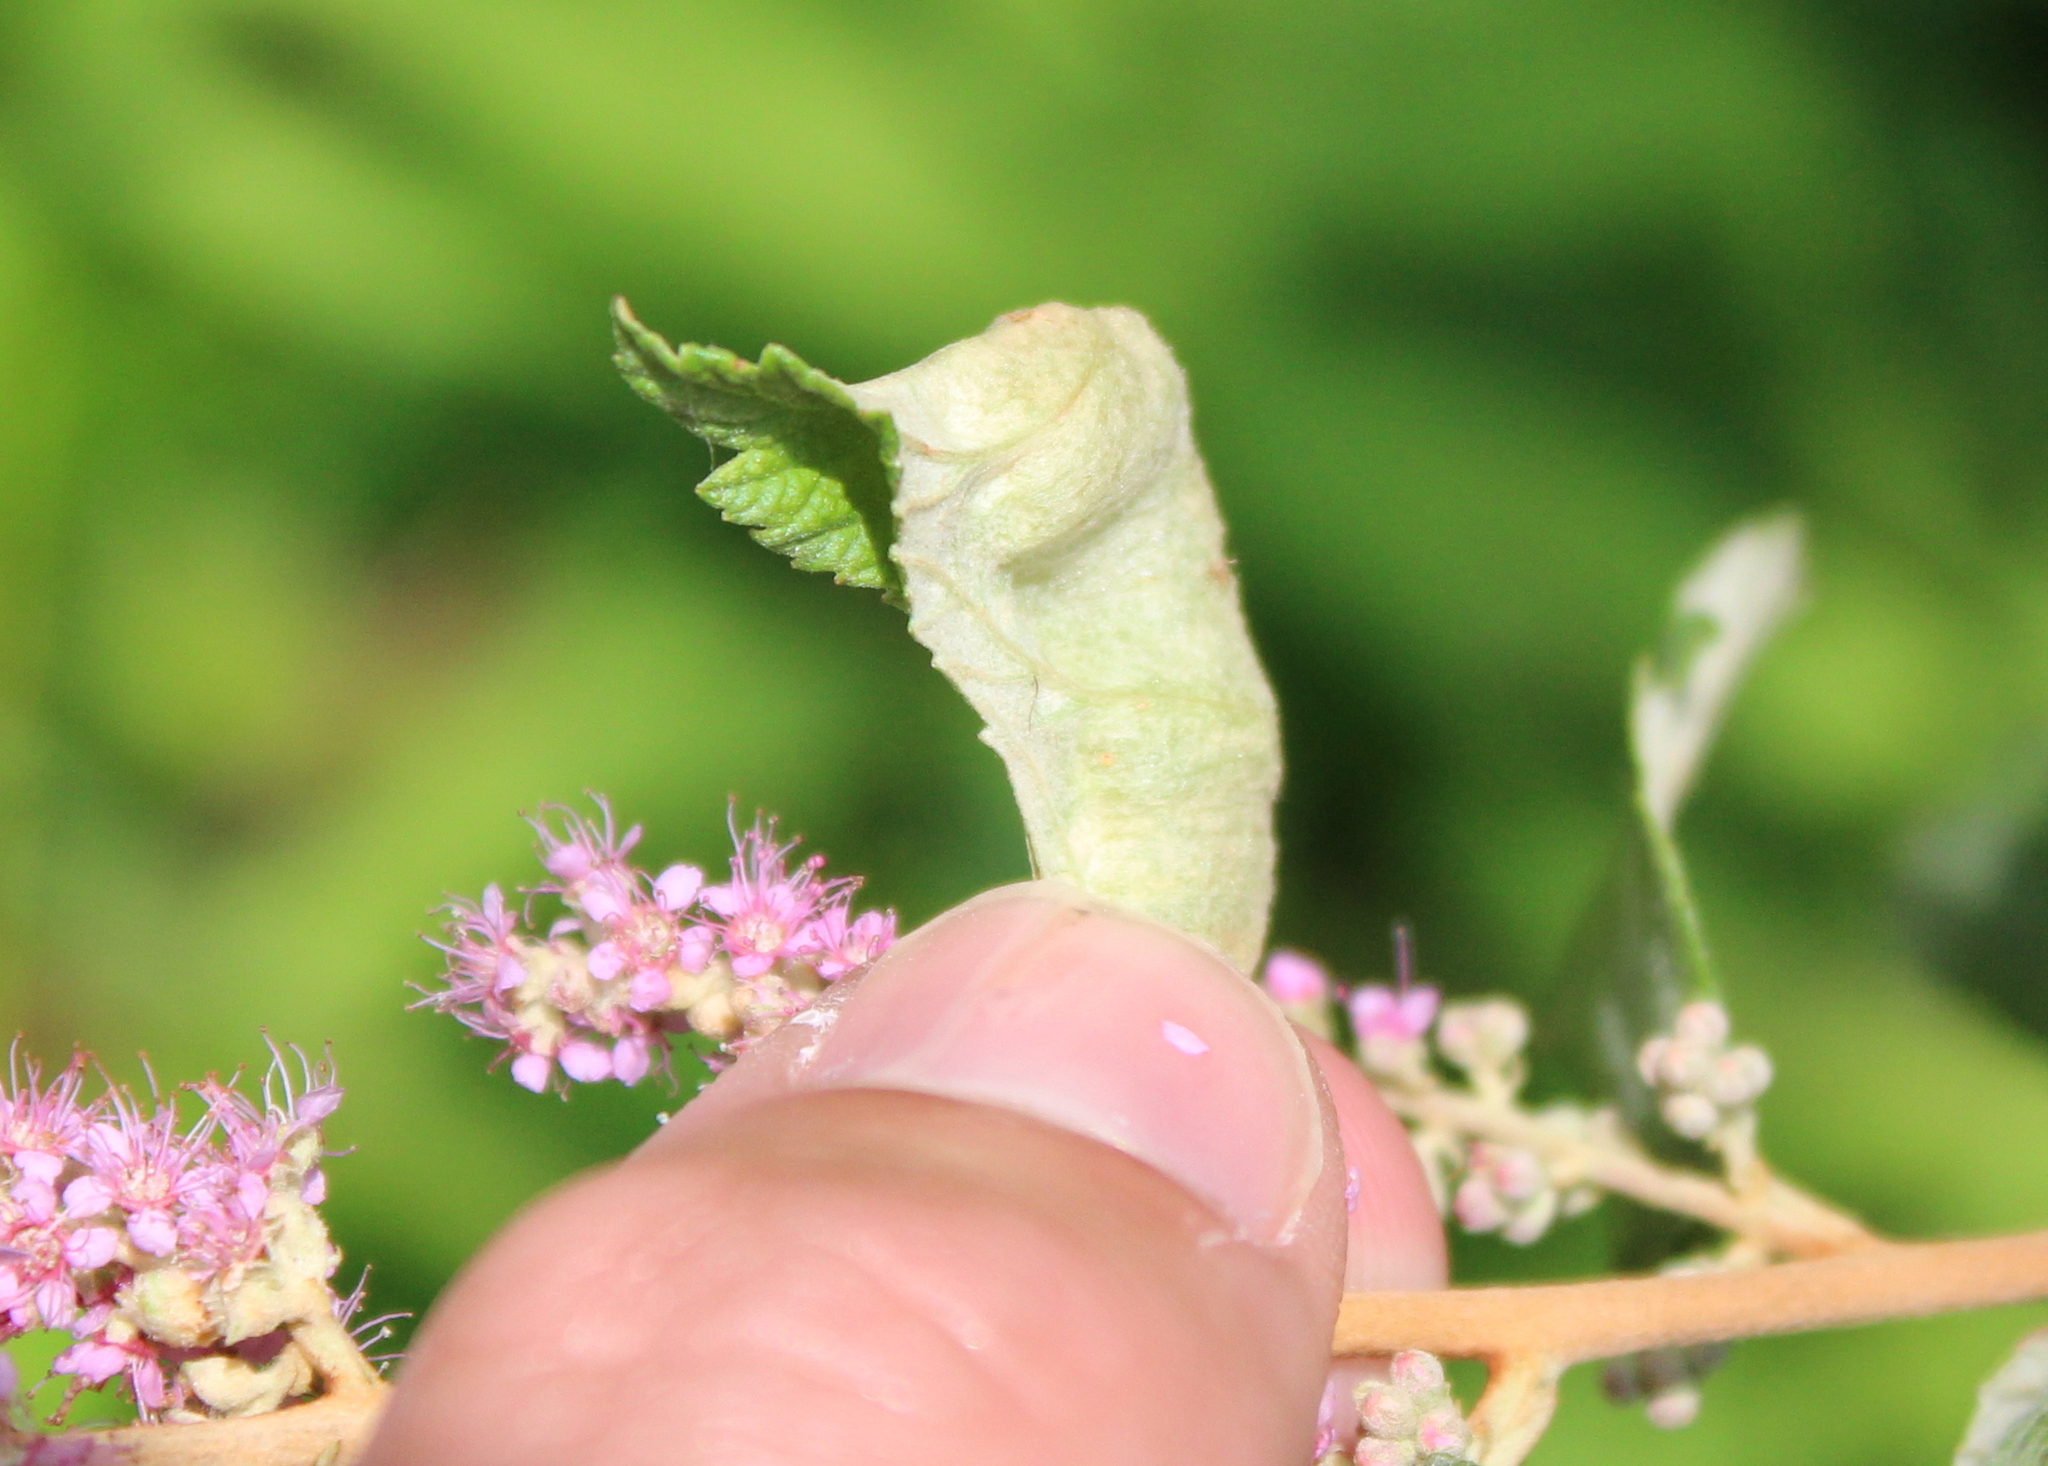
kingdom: Animalia
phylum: Arthropoda
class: Insecta
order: Diptera
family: Cecidomyiidae
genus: Dasineura
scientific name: Dasineura salicifoliae
